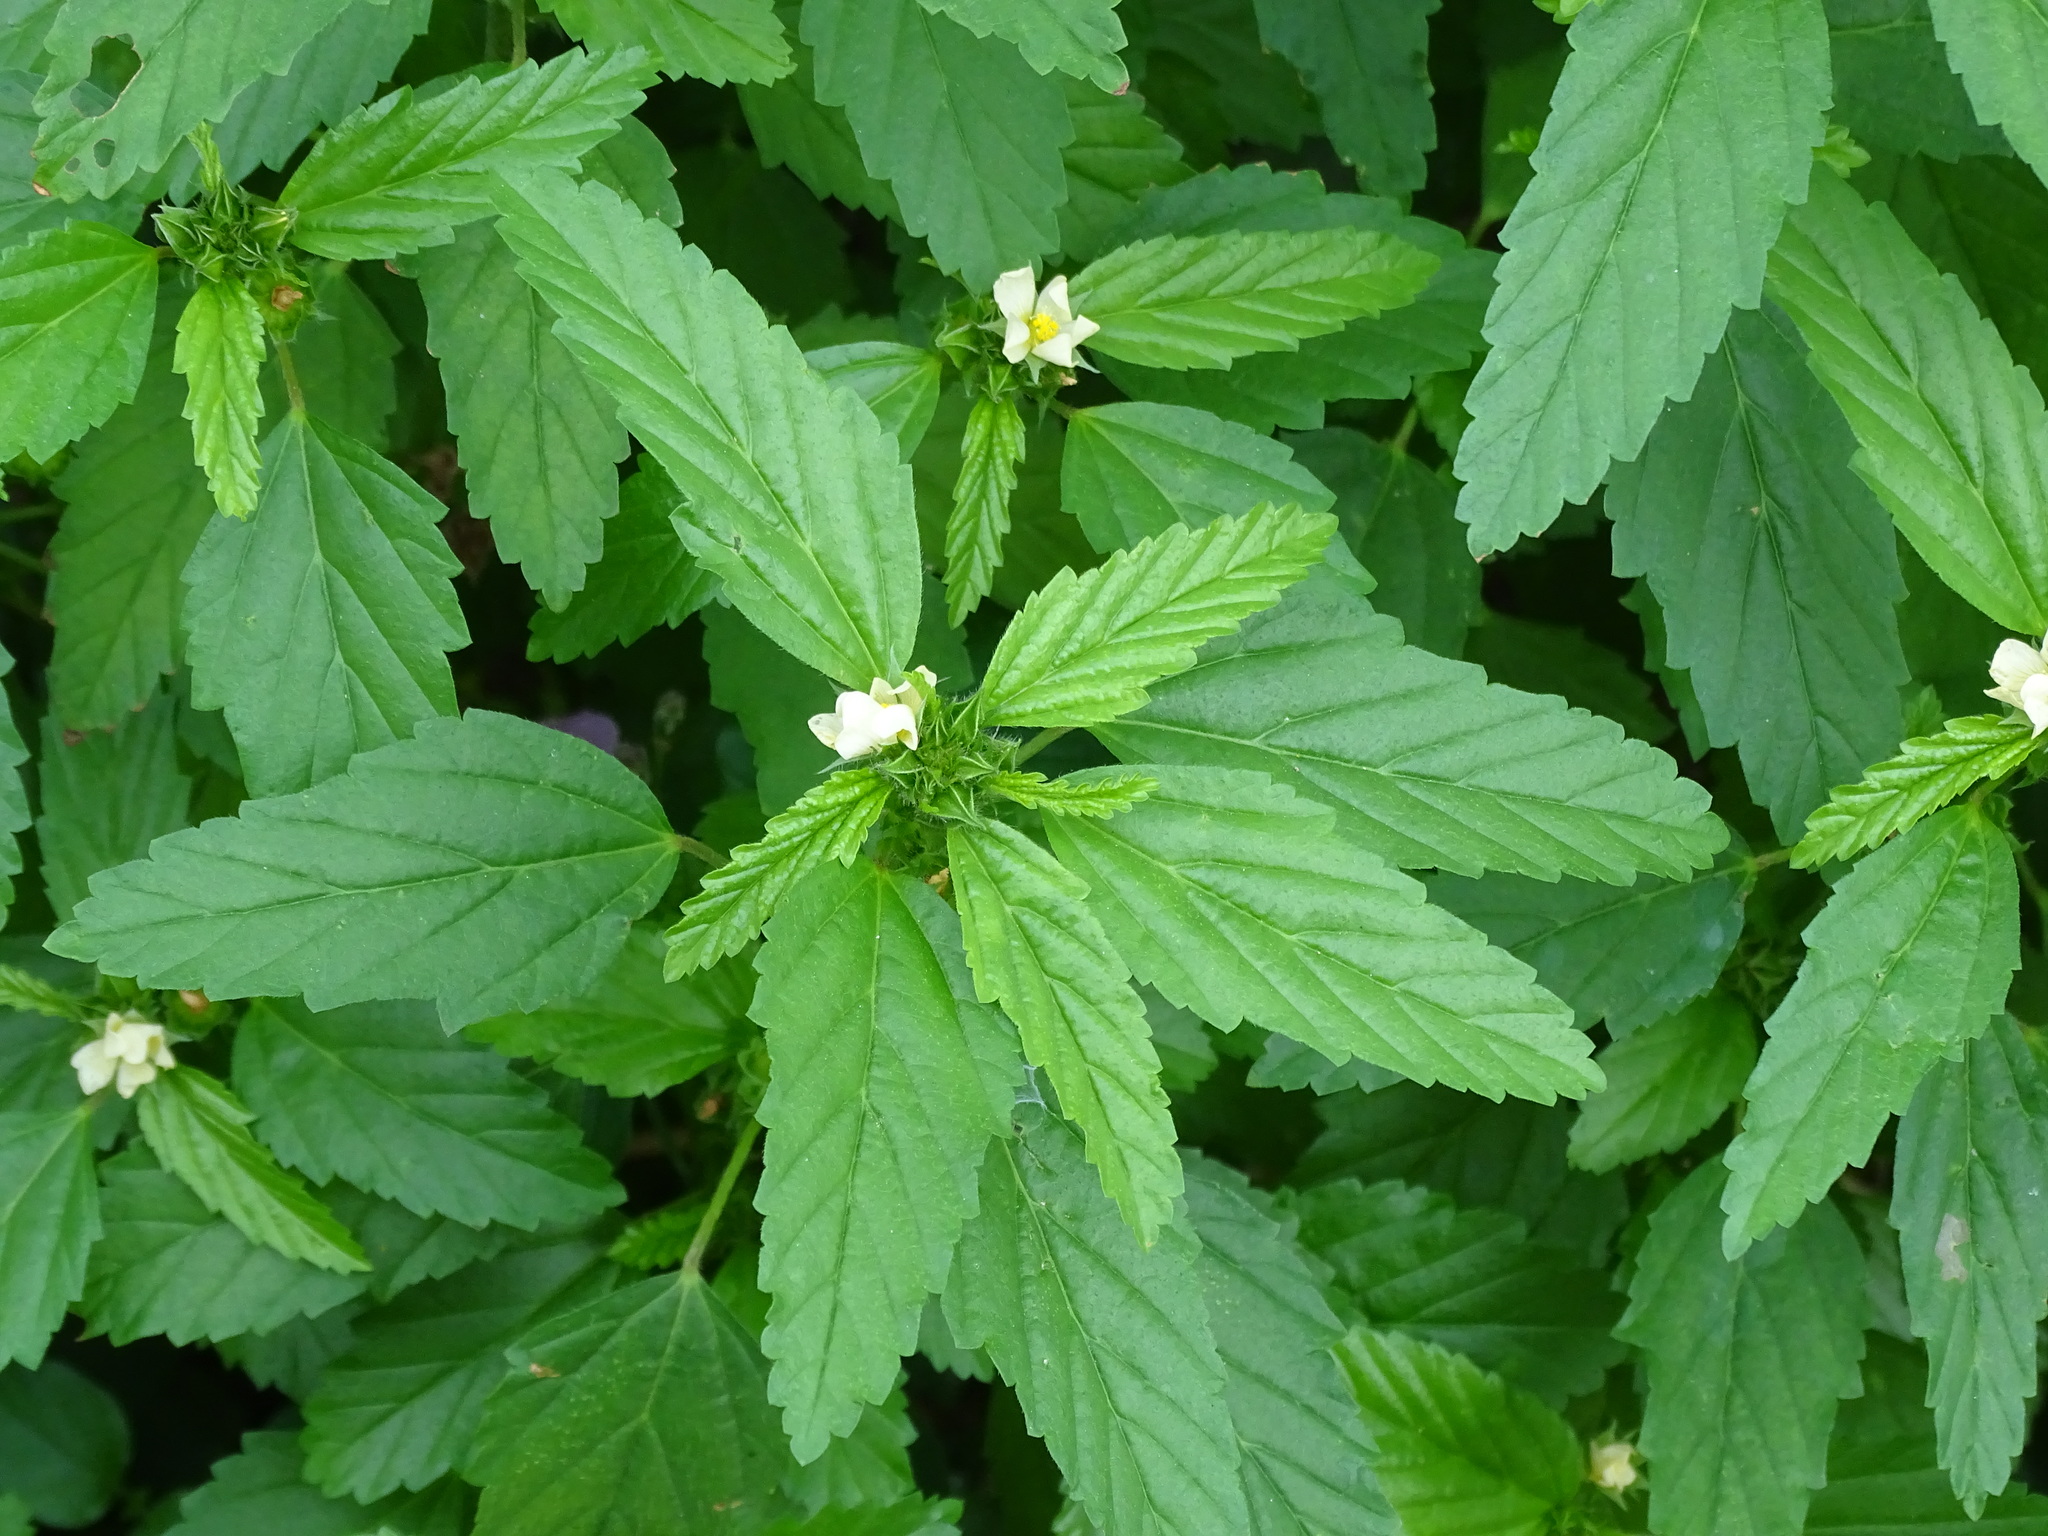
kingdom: Plantae
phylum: Tracheophyta
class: Magnoliopsida
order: Malvales
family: Malvaceae
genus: Malvastrum
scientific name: Malvastrum coromandelianum
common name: Threelobe false mallow
